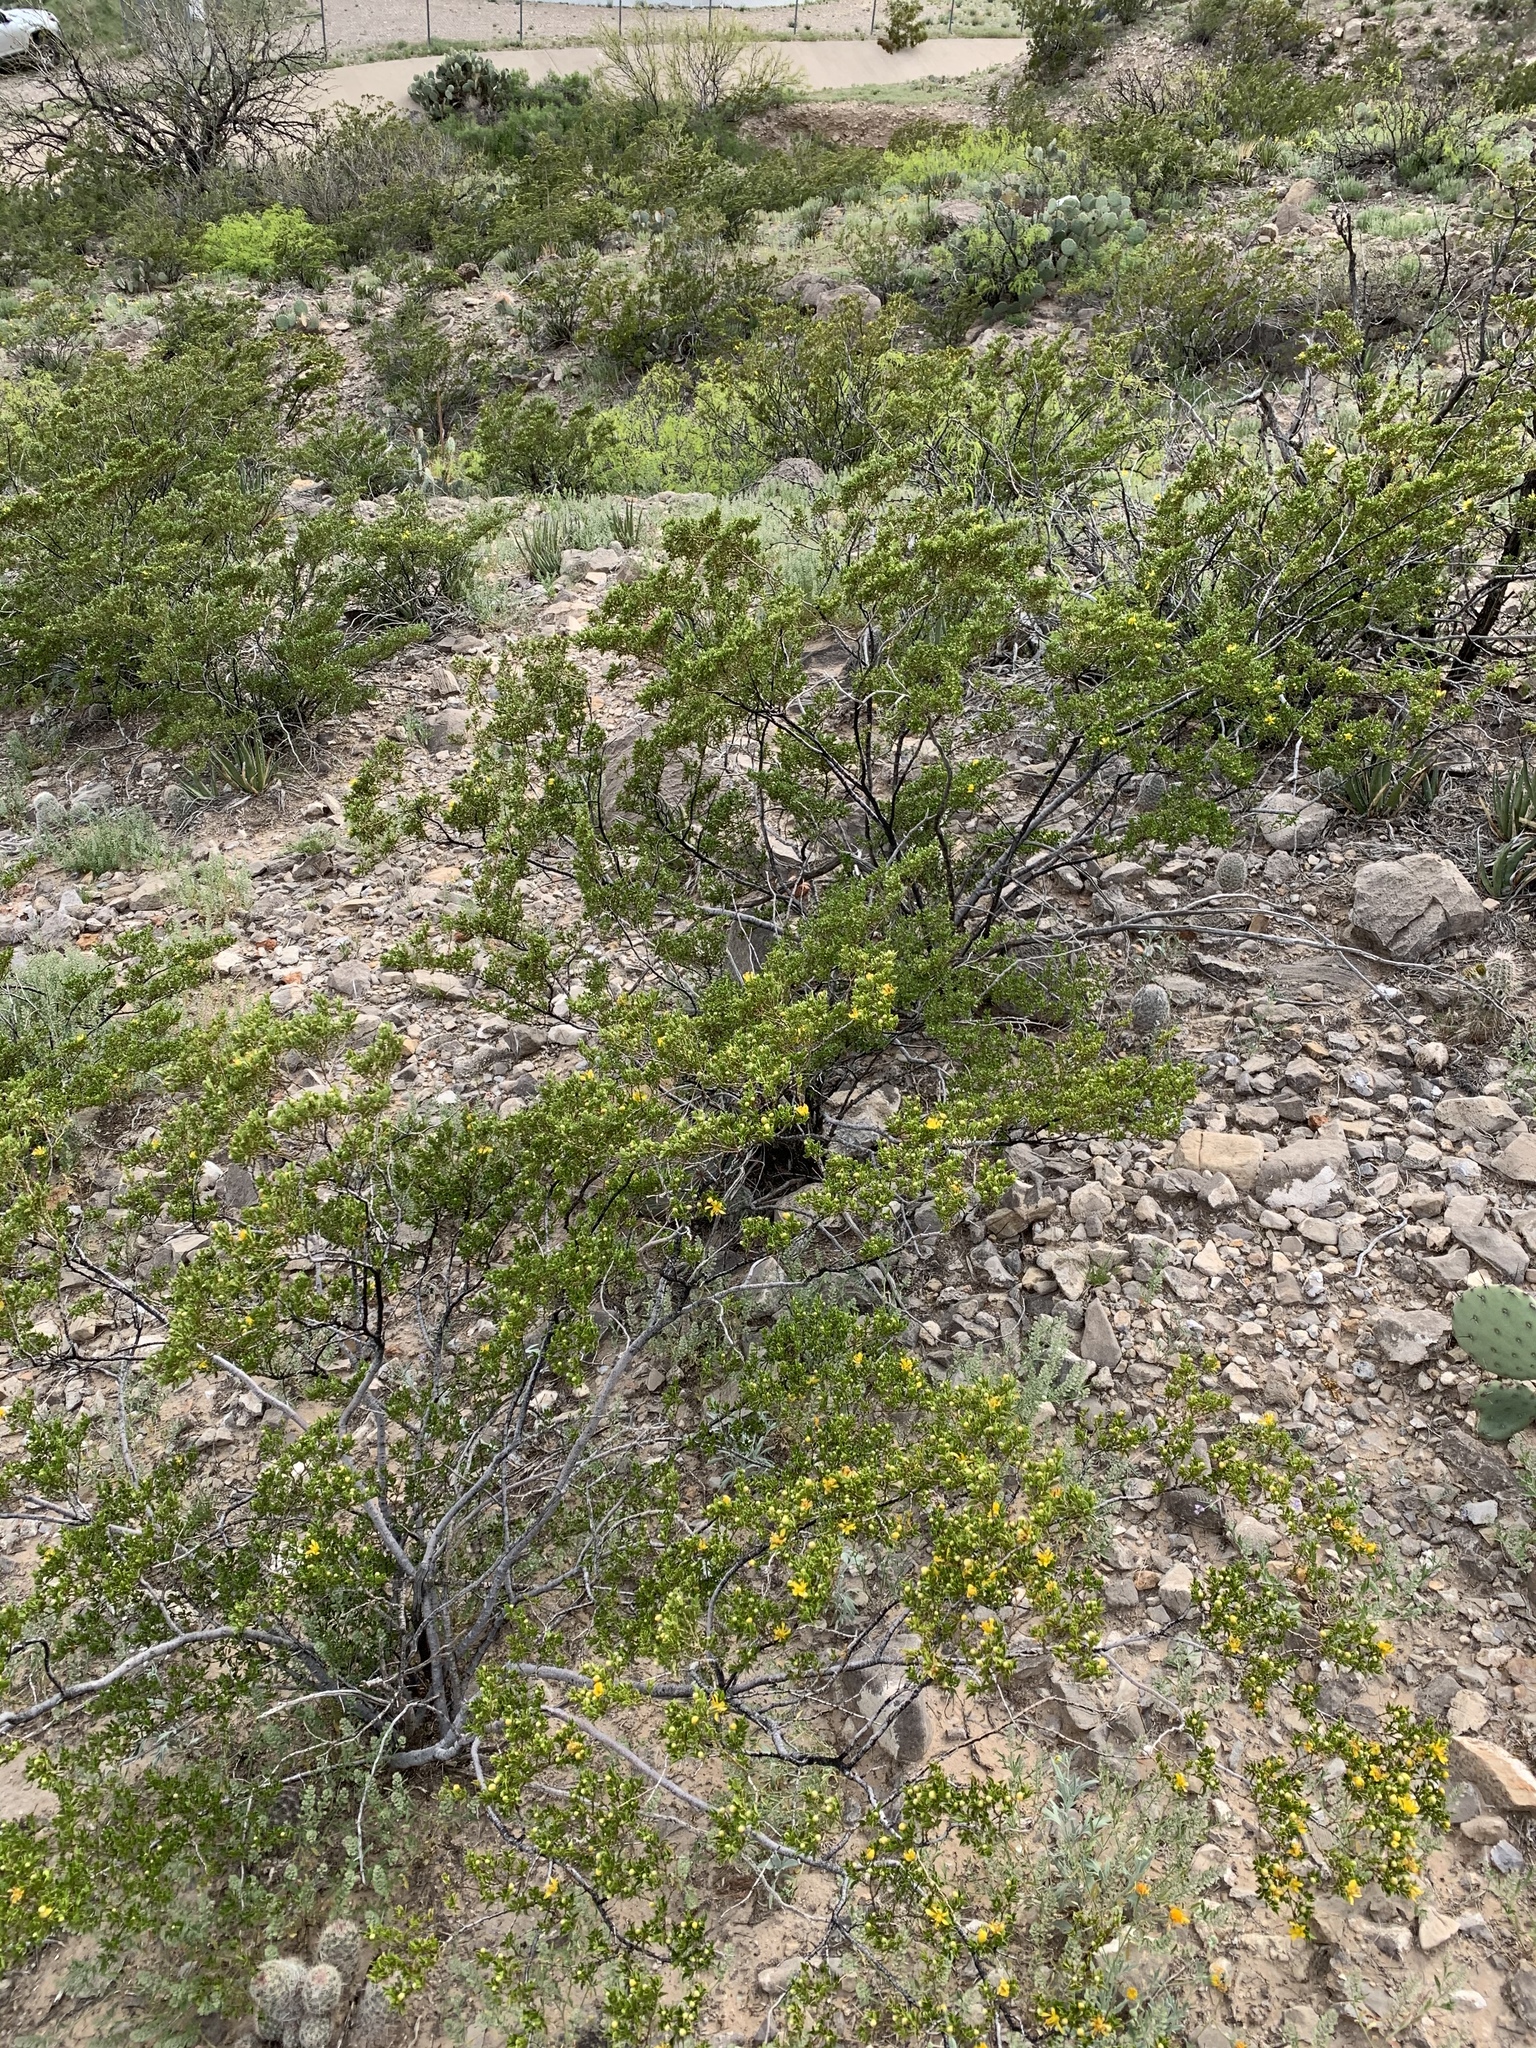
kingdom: Plantae
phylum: Tracheophyta
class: Magnoliopsida
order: Zygophyllales
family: Zygophyllaceae
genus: Larrea
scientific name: Larrea tridentata
